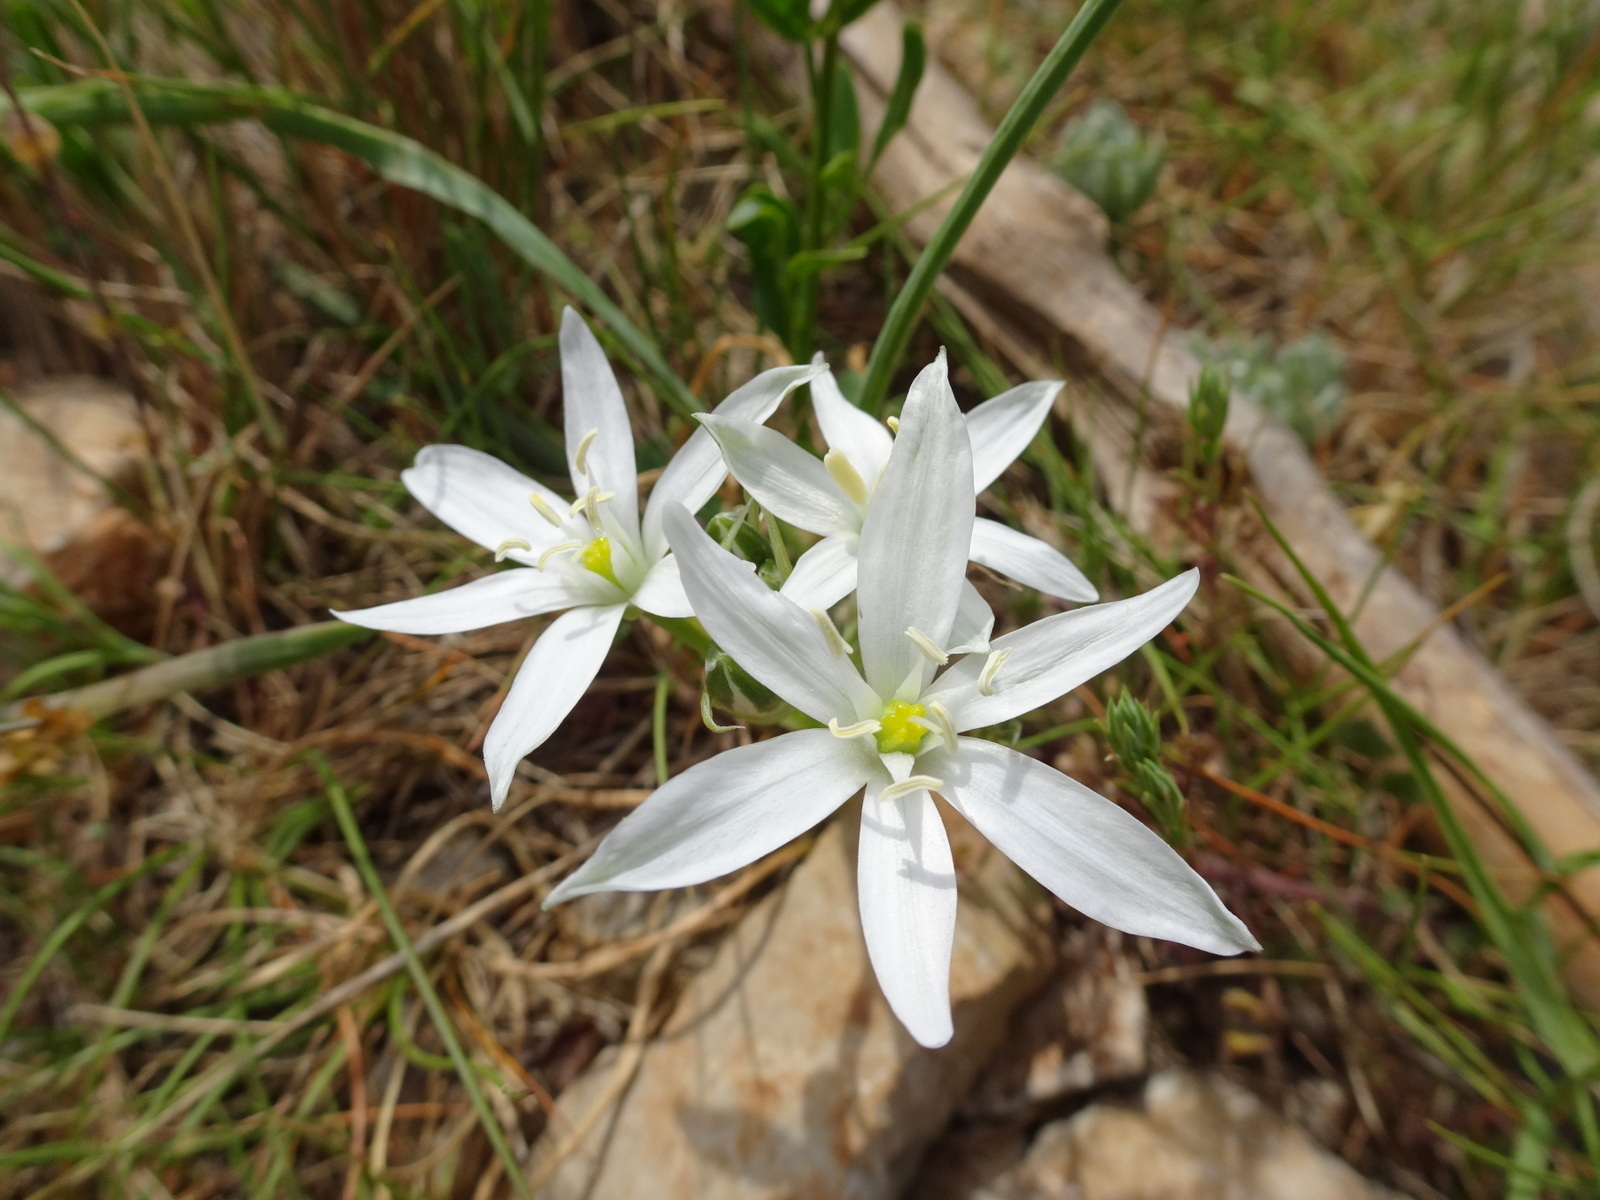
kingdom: Plantae
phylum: Tracheophyta
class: Liliopsida
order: Asparagales
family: Asparagaceae
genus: Ornithogalum
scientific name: Ornithogalum umbellatum
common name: Garden star-of-bethlehem
